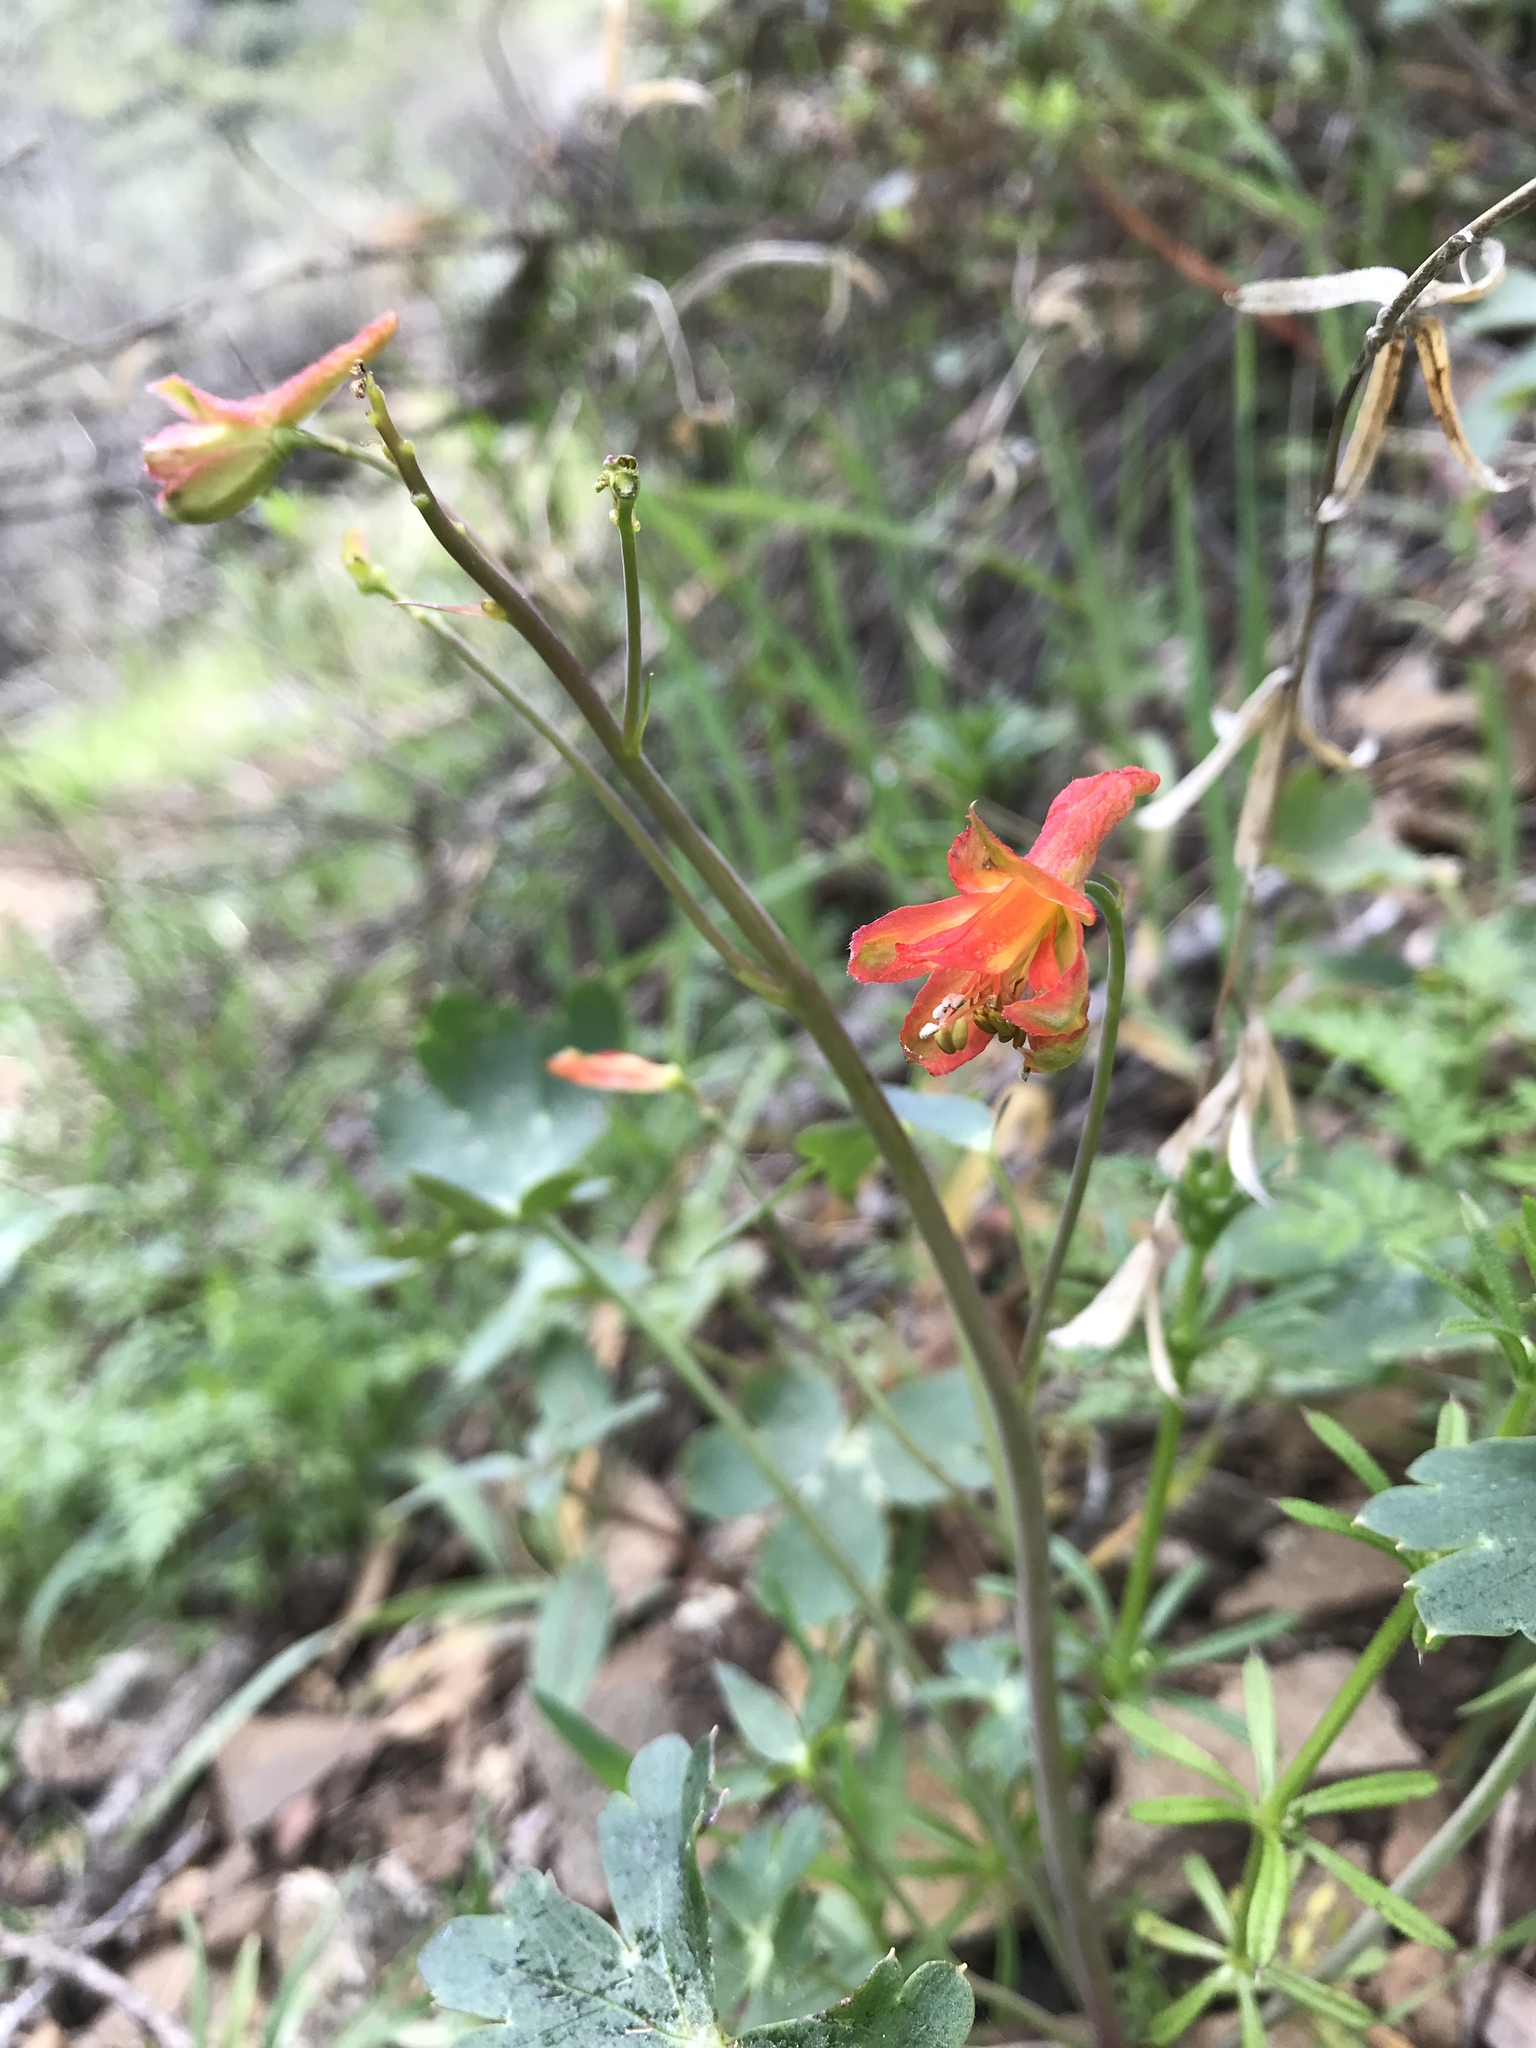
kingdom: Plantae
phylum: Tracheophyta
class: Magnoliopsida
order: Ranunculales
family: Ranunculaceae
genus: Delphinium
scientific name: Delphinium nudicaule
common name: Red larkspur
